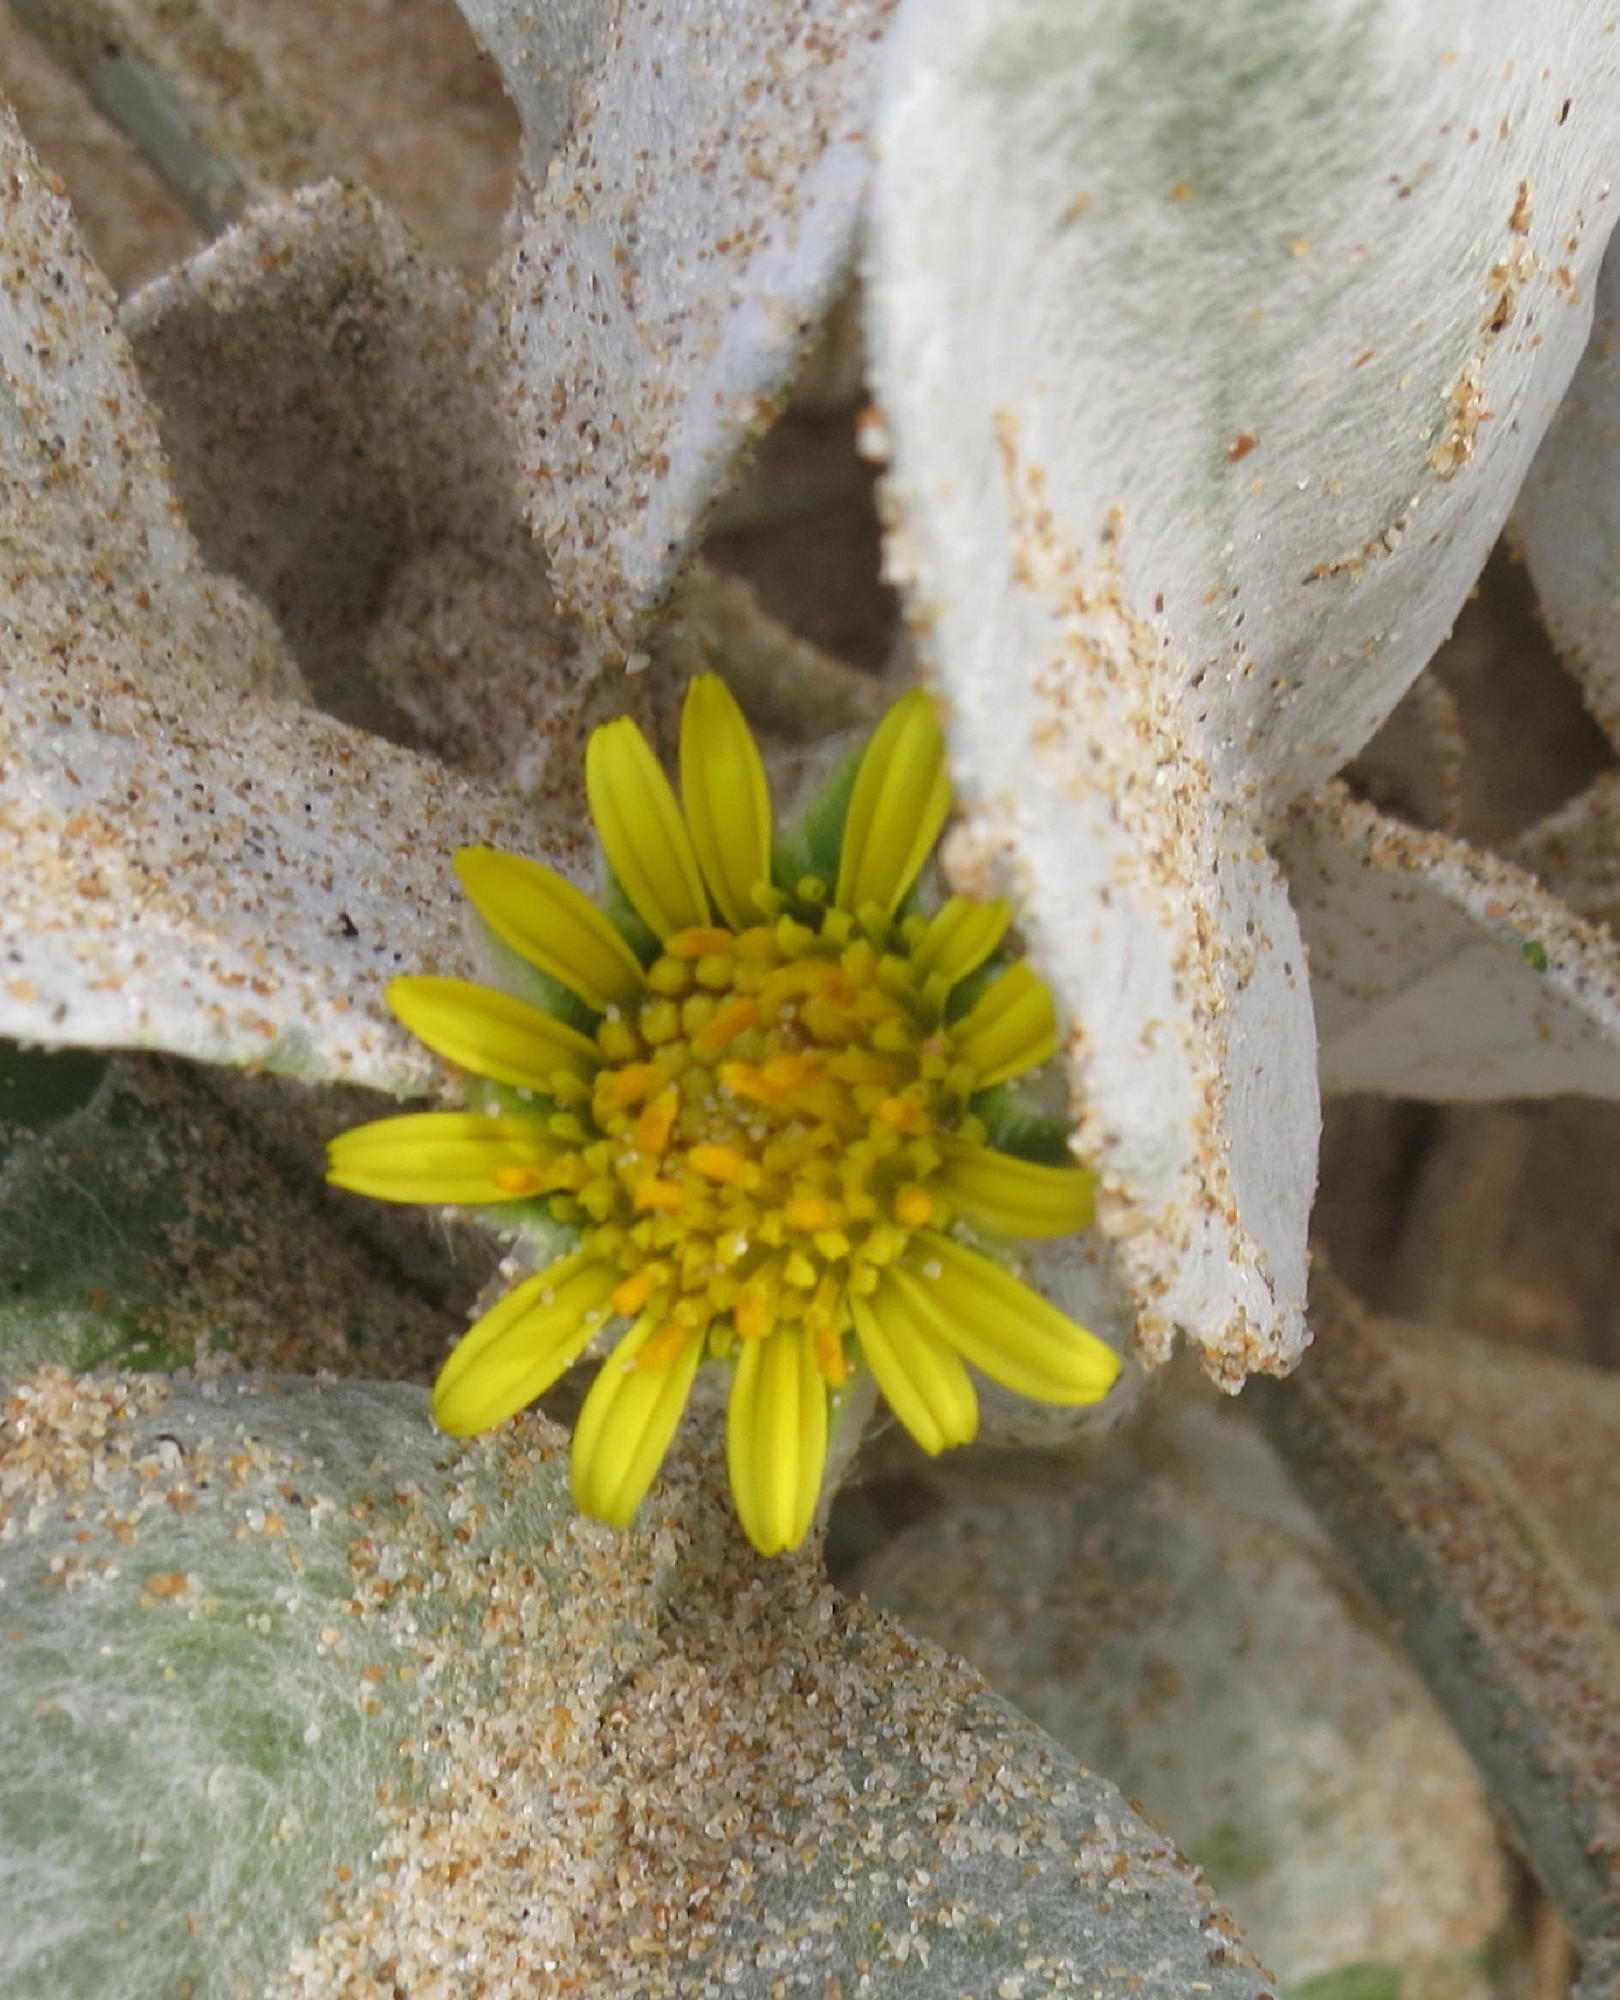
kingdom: Plantae
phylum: Tracheophyta
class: Magnoliopsida
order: Asterales
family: Asteraceae
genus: Arctotheca
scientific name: Arctotheca populifolia
